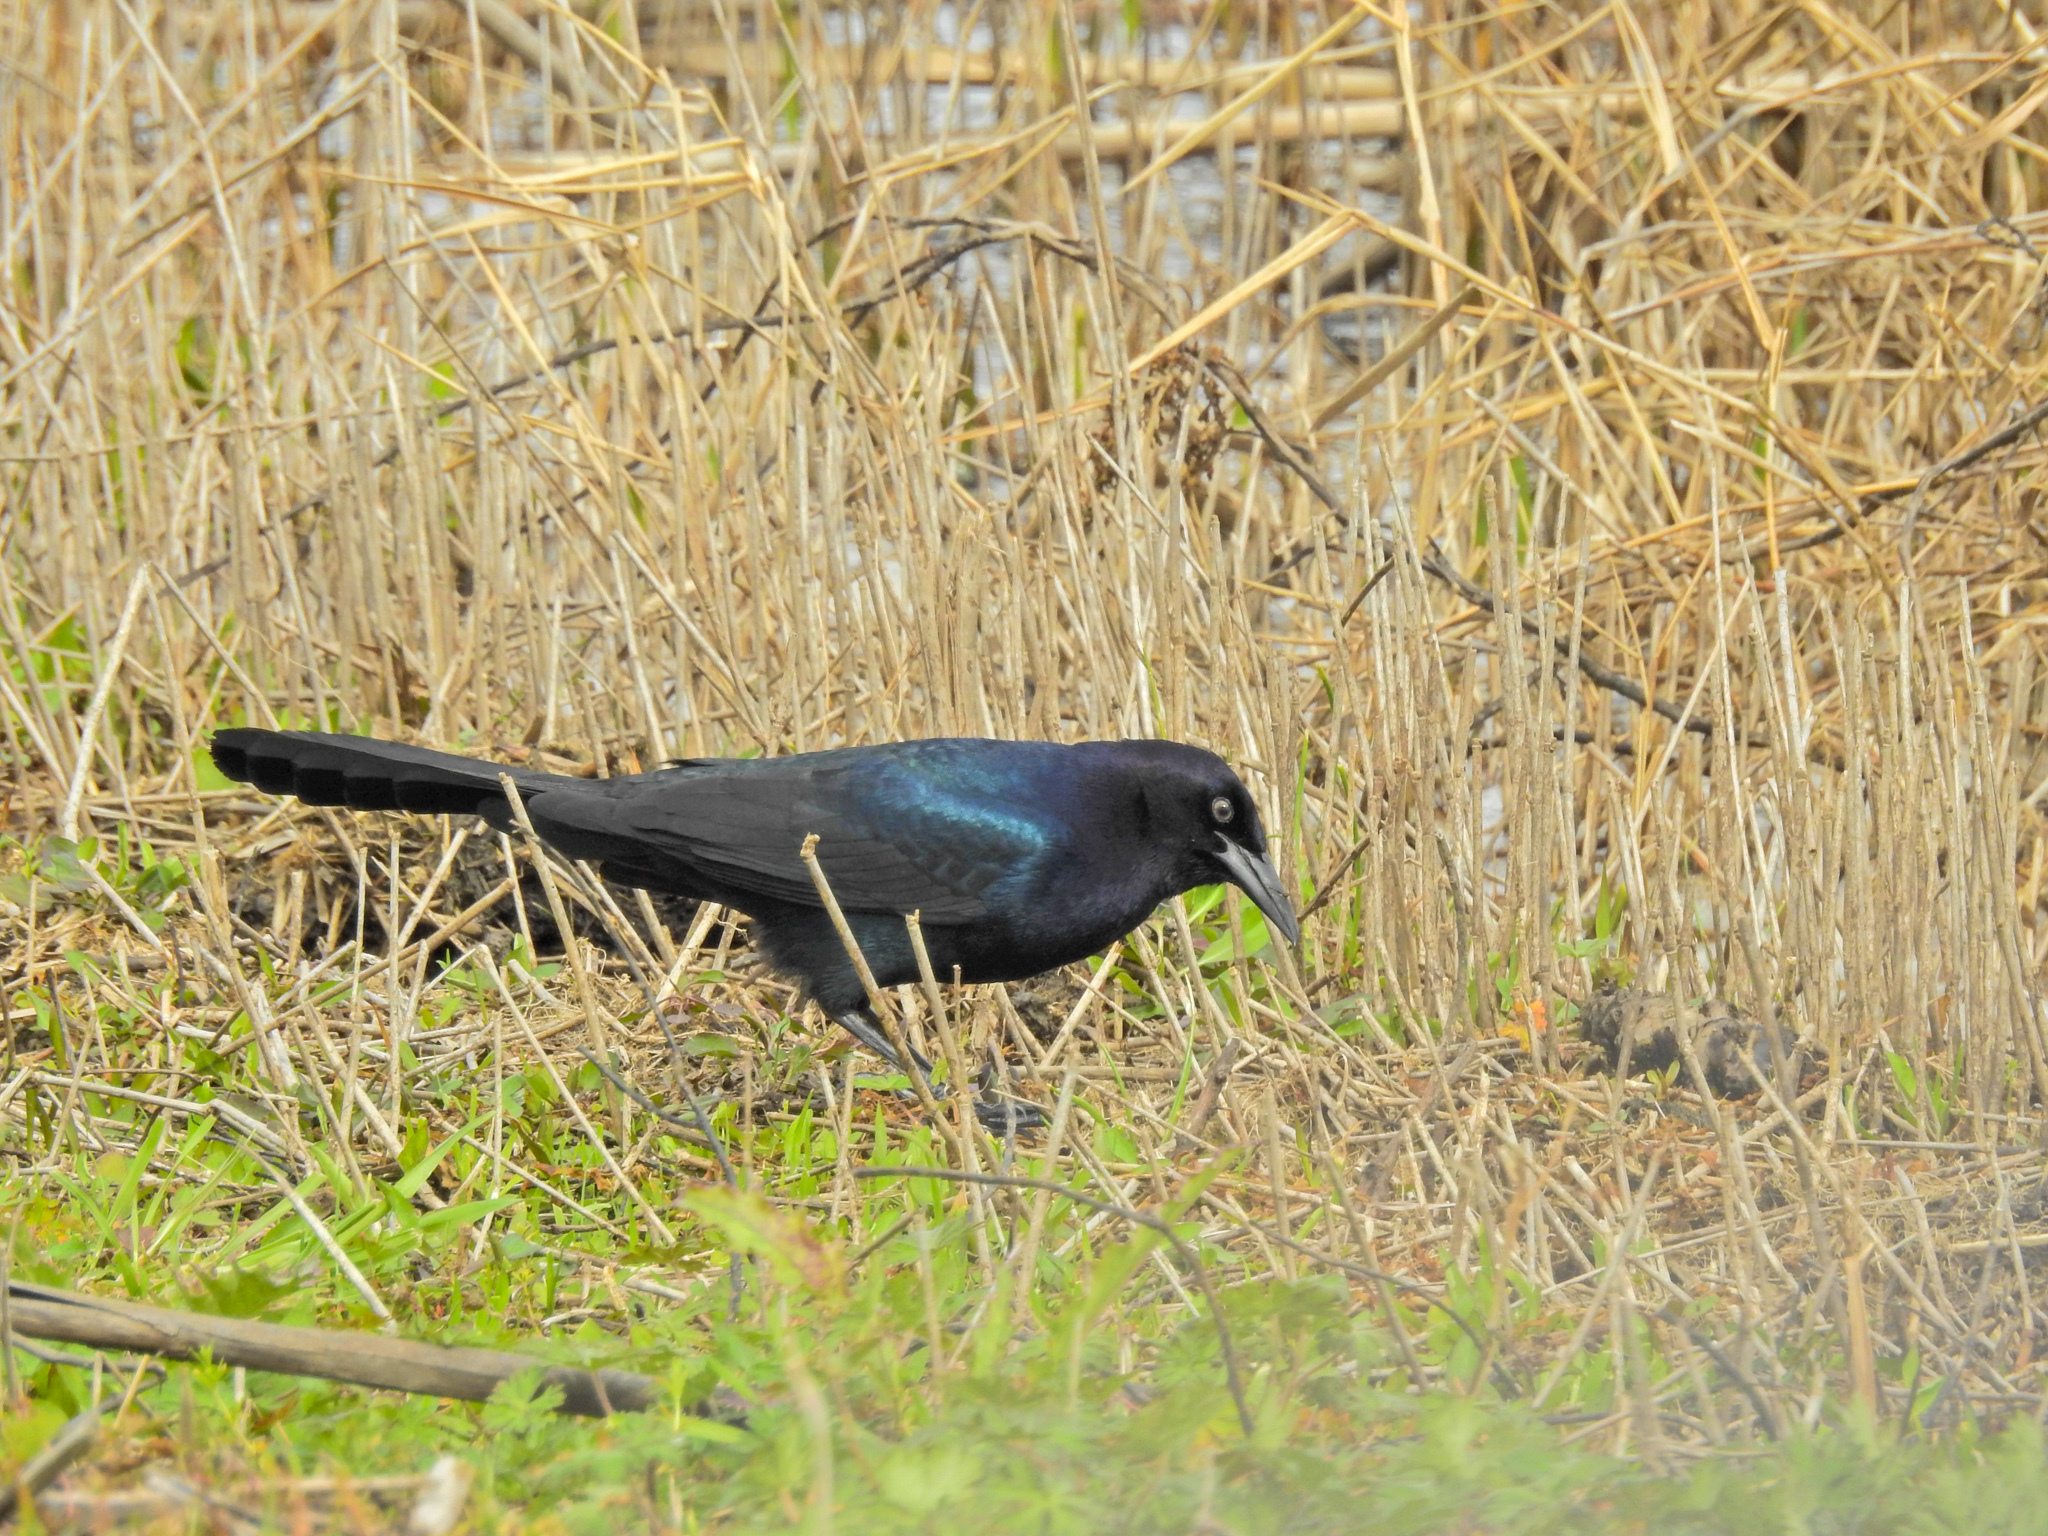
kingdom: Animalia
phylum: Chordata
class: Aves
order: Passeriformes
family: Icteridae
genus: Quiscalus
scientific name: Quiscalus major
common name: Boat-tailed grackle
